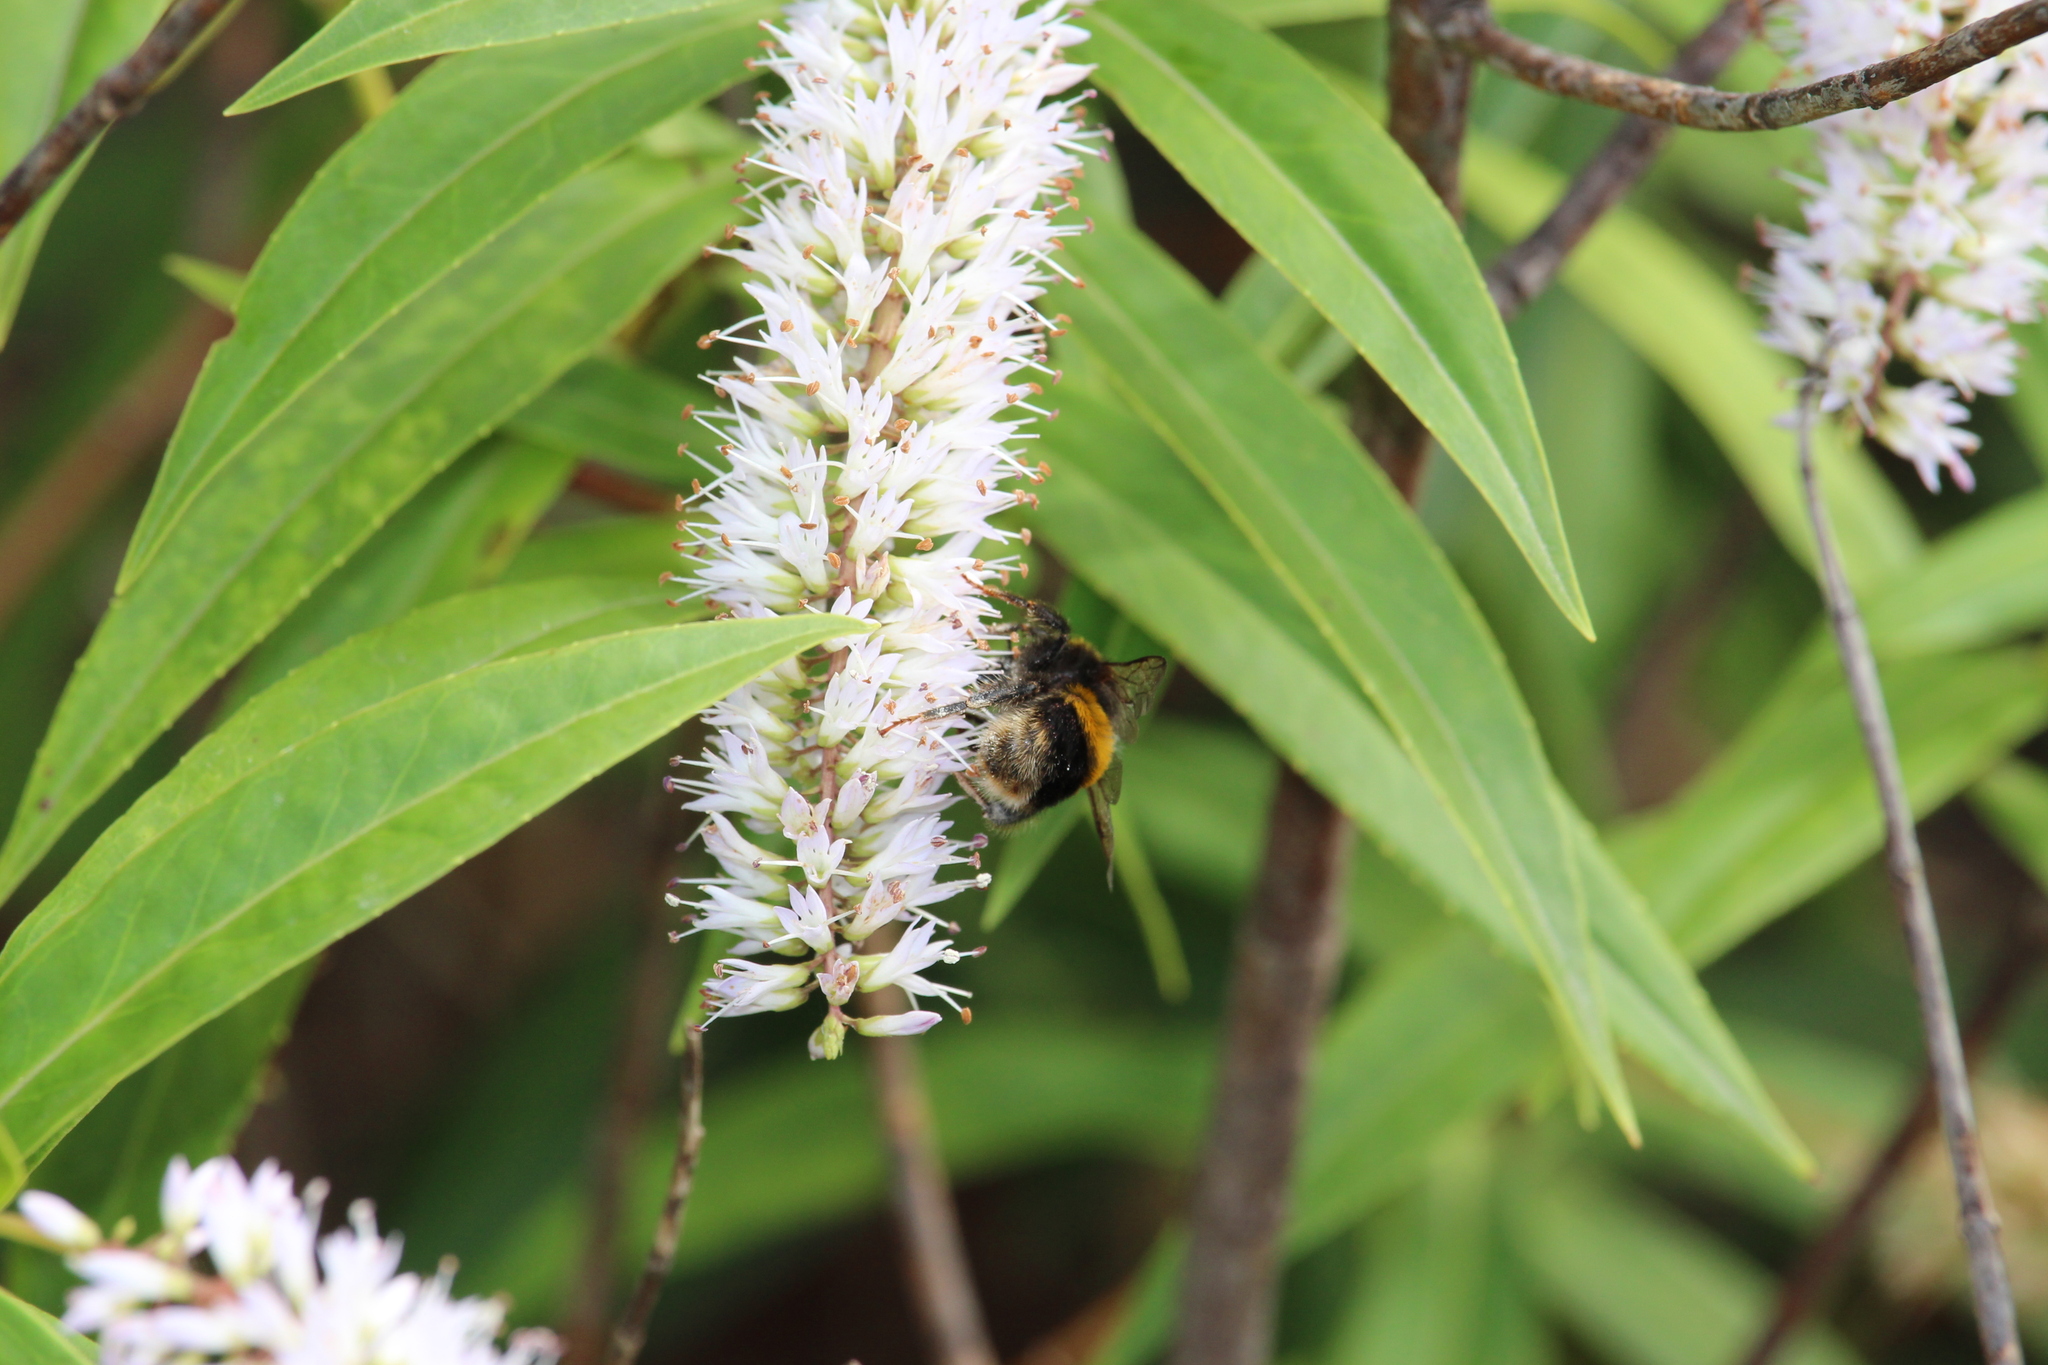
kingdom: Animalia
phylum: Arthropoda
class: Insecta
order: Hymenoptera
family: Apidae
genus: Bombus
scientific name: Bombus terrestris
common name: Buff-tailed bumblebee
